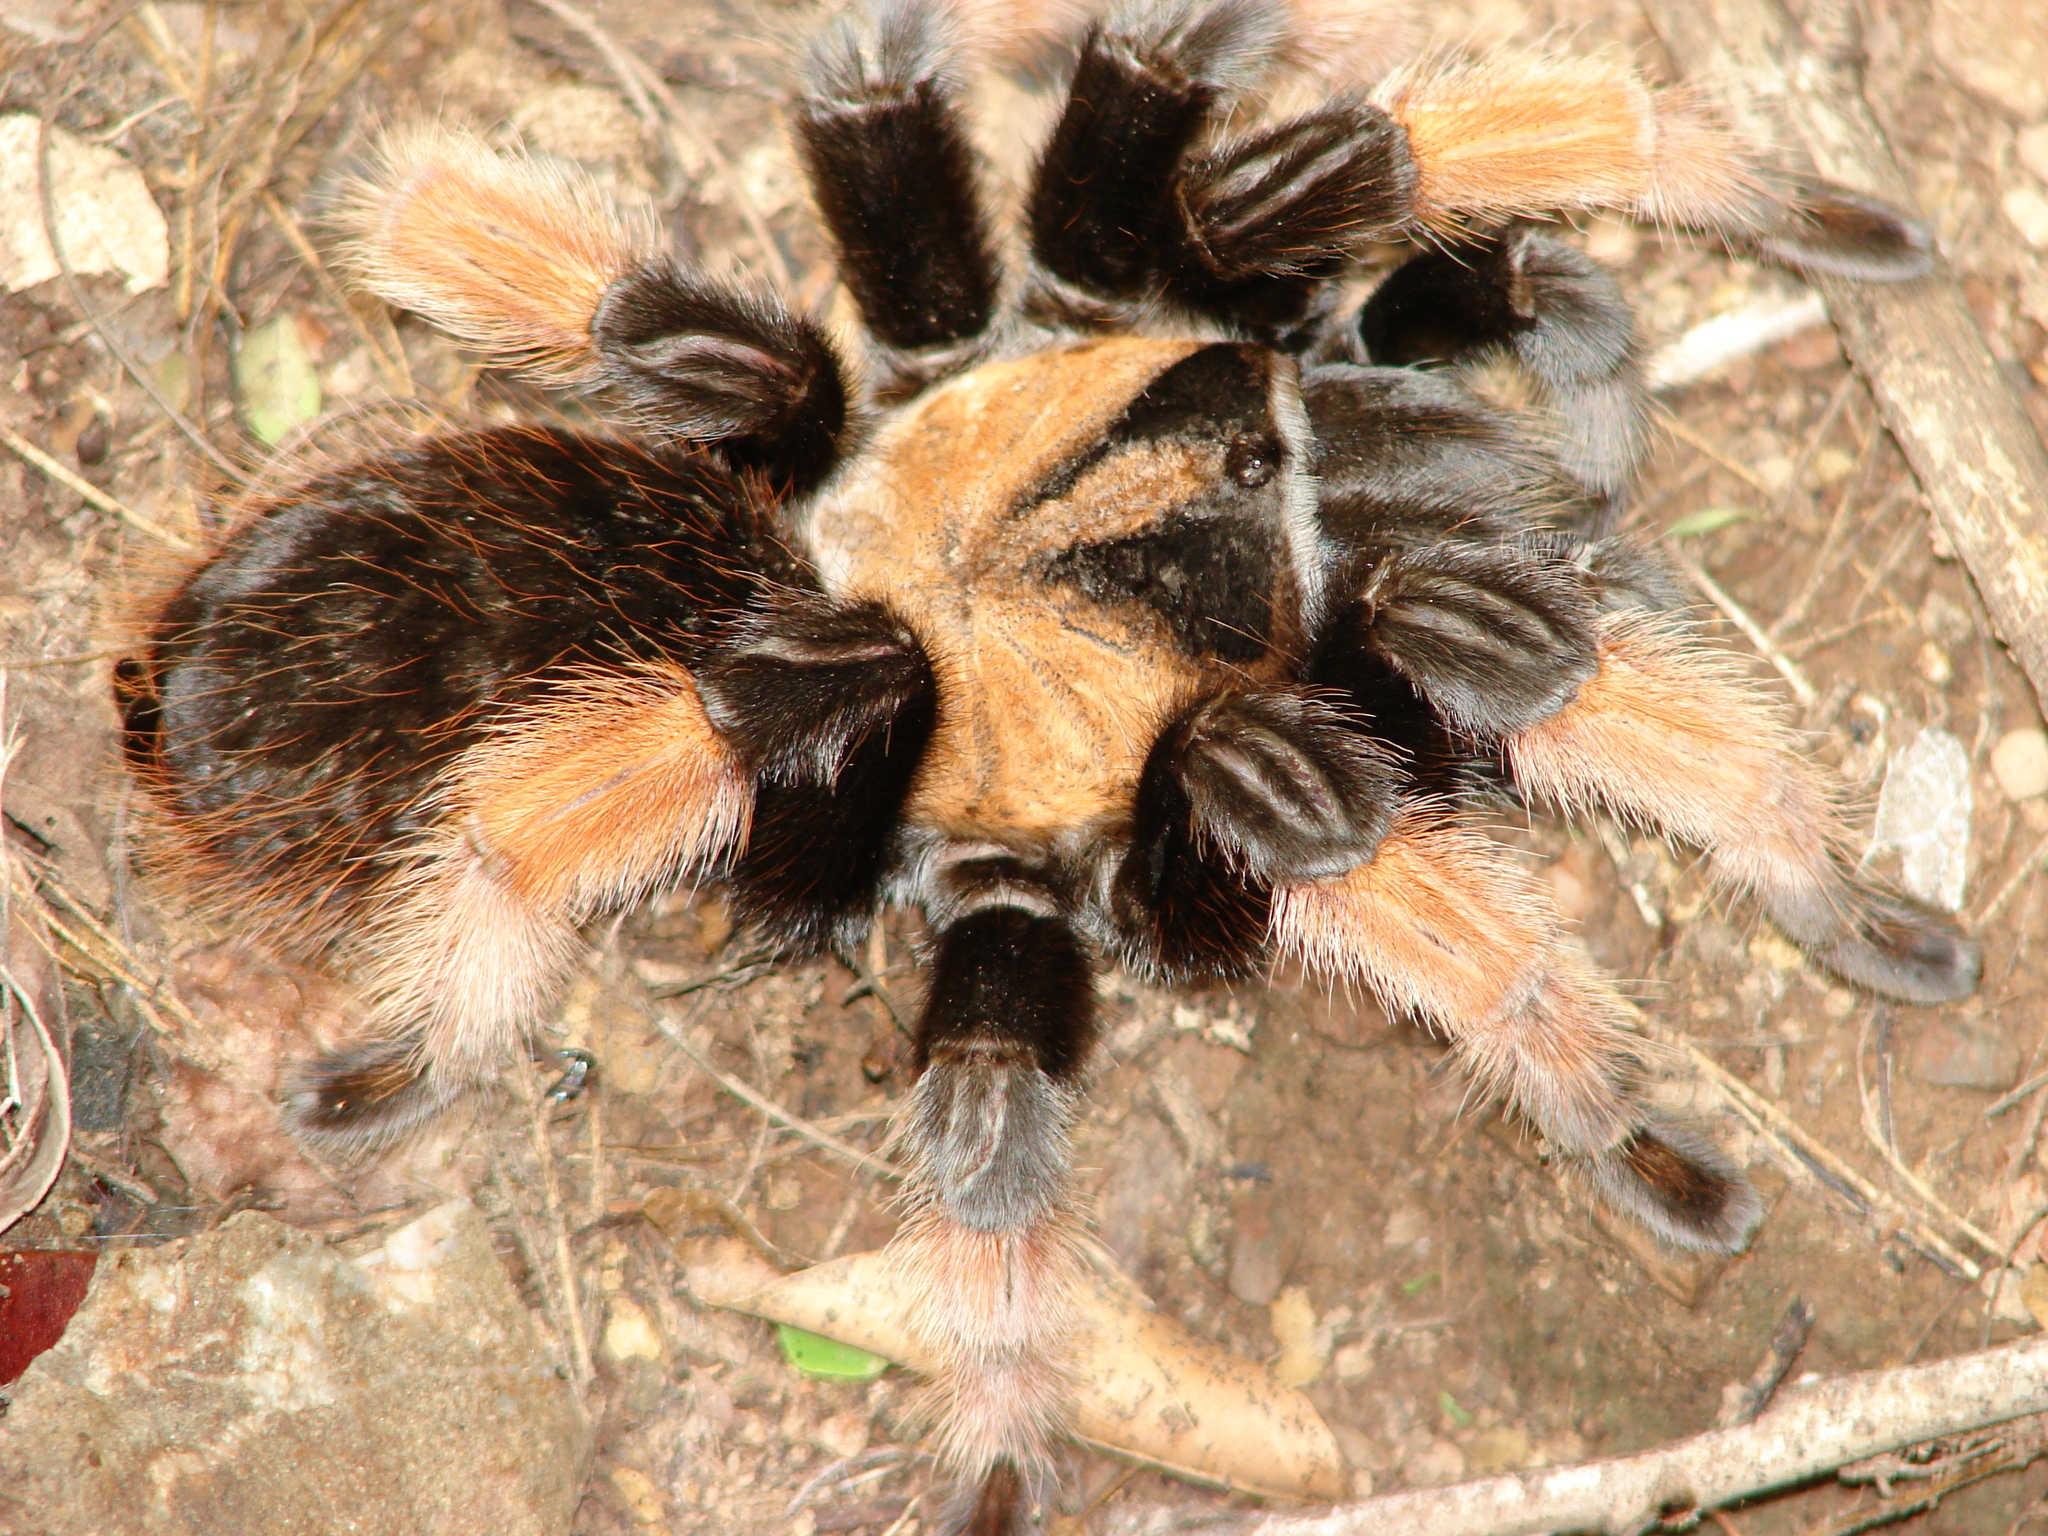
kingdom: Animalia
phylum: Arthropoda
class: Arachnida
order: Araneae
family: Theraphosidae
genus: Brachypelma
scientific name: Brachypelma emilia
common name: Mexican redleg
